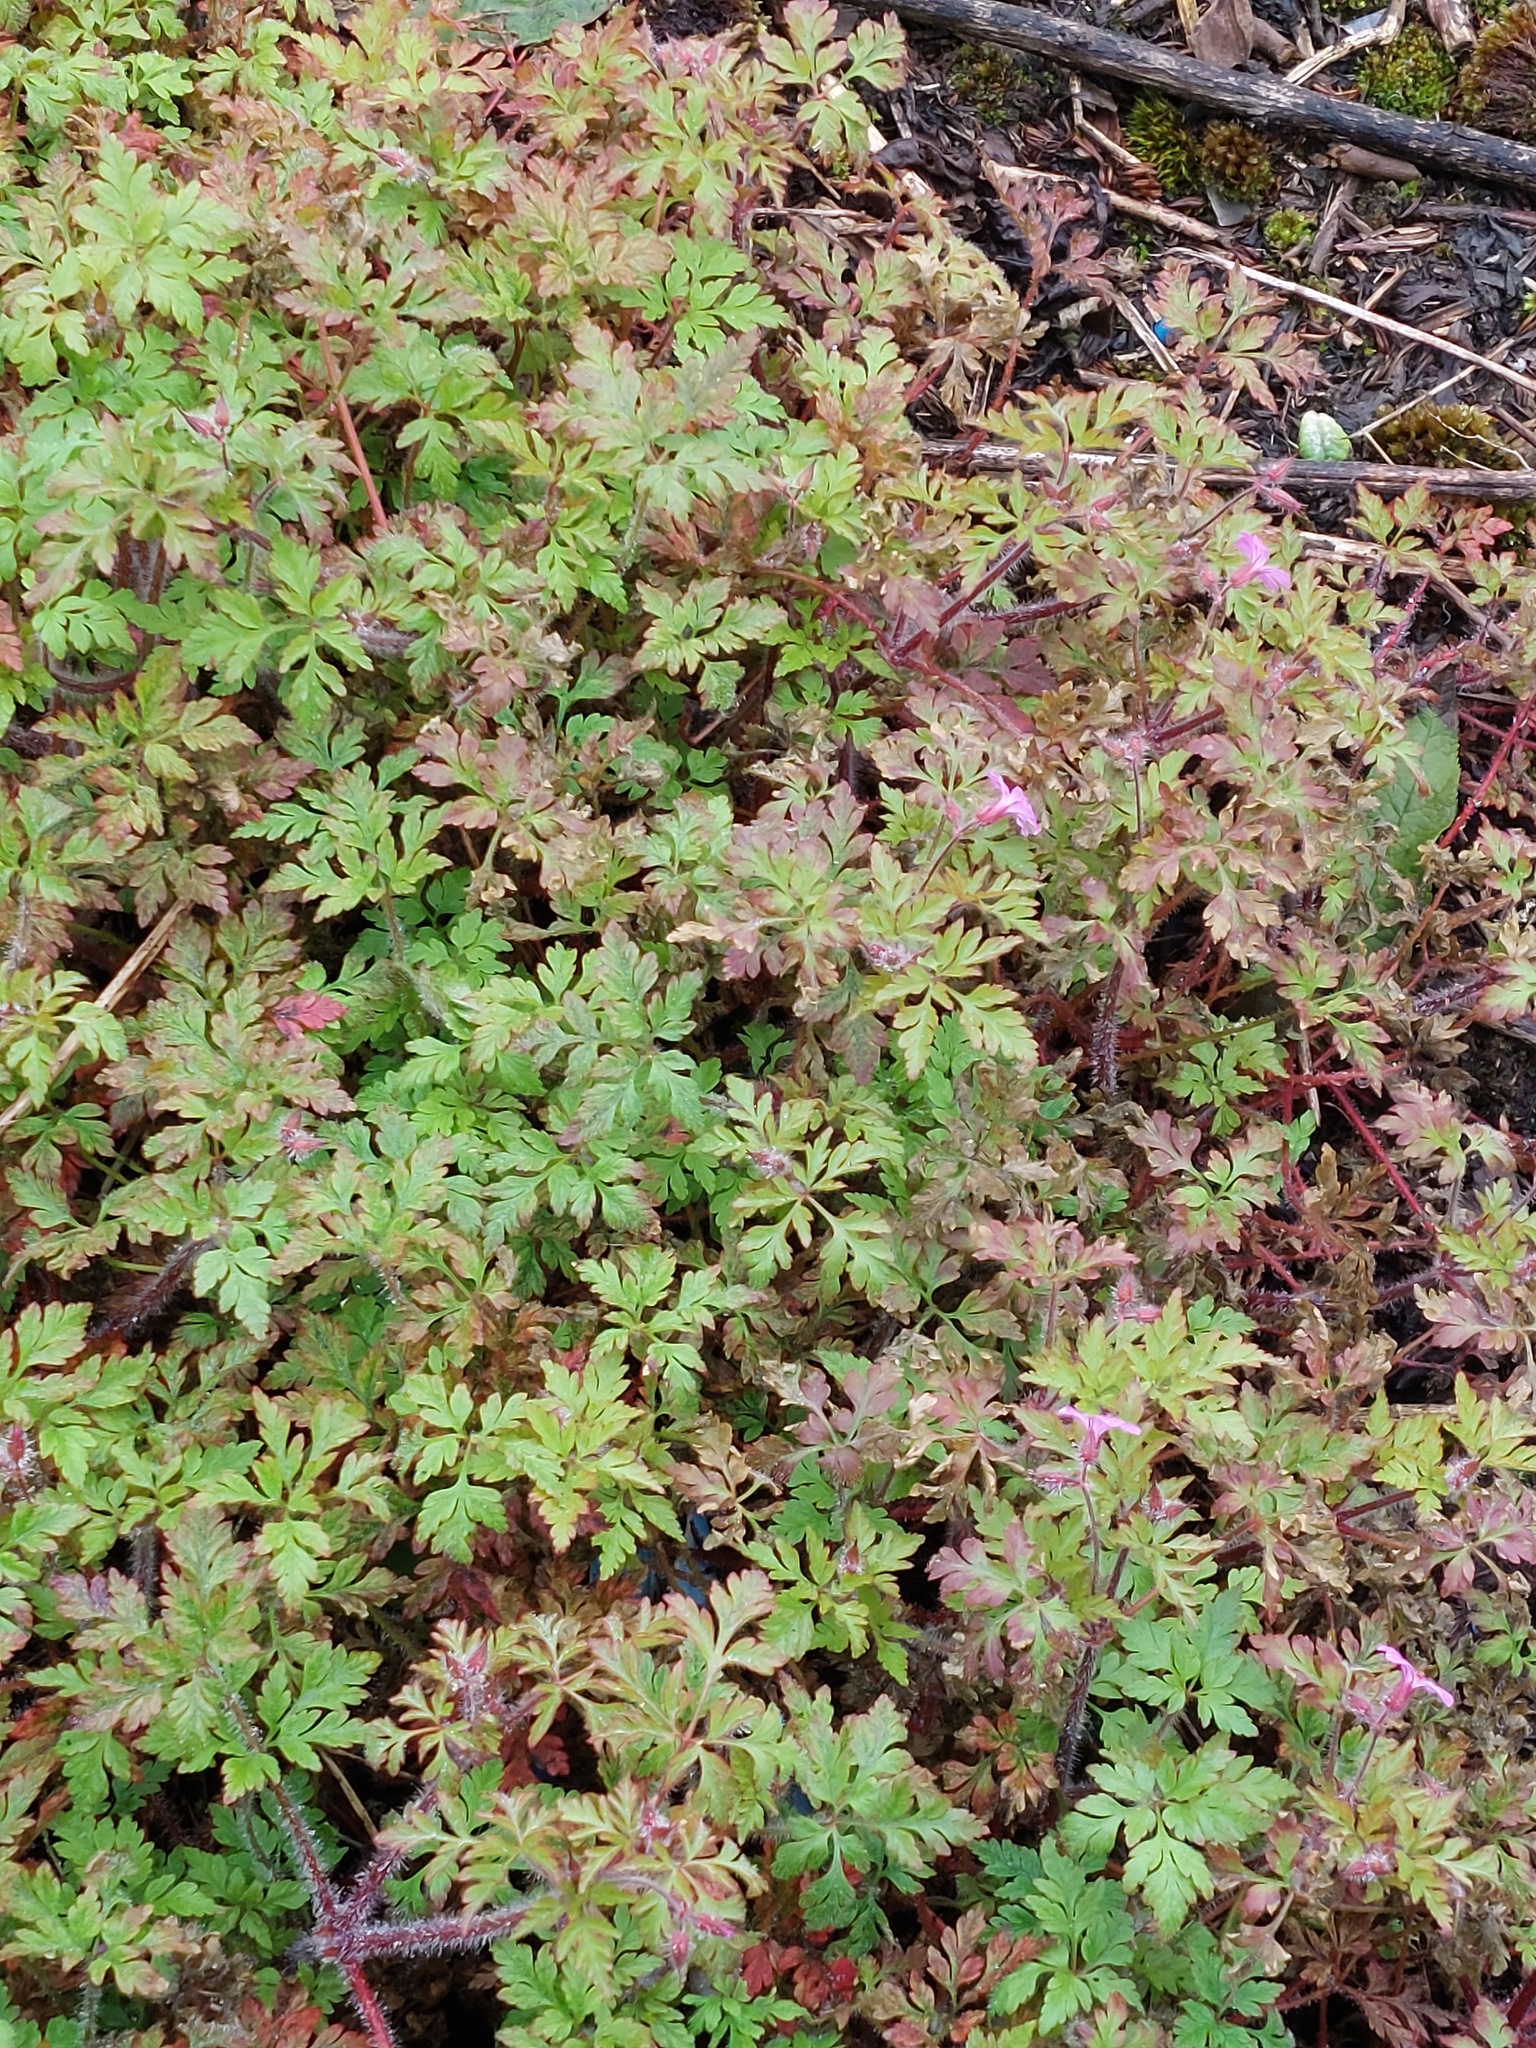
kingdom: Plantae
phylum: Tracheophyta
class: Magnoliopsida
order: Geraniales
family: Geraniaceae
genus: Geranium
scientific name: Geranium robertianum
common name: Herb-robert
